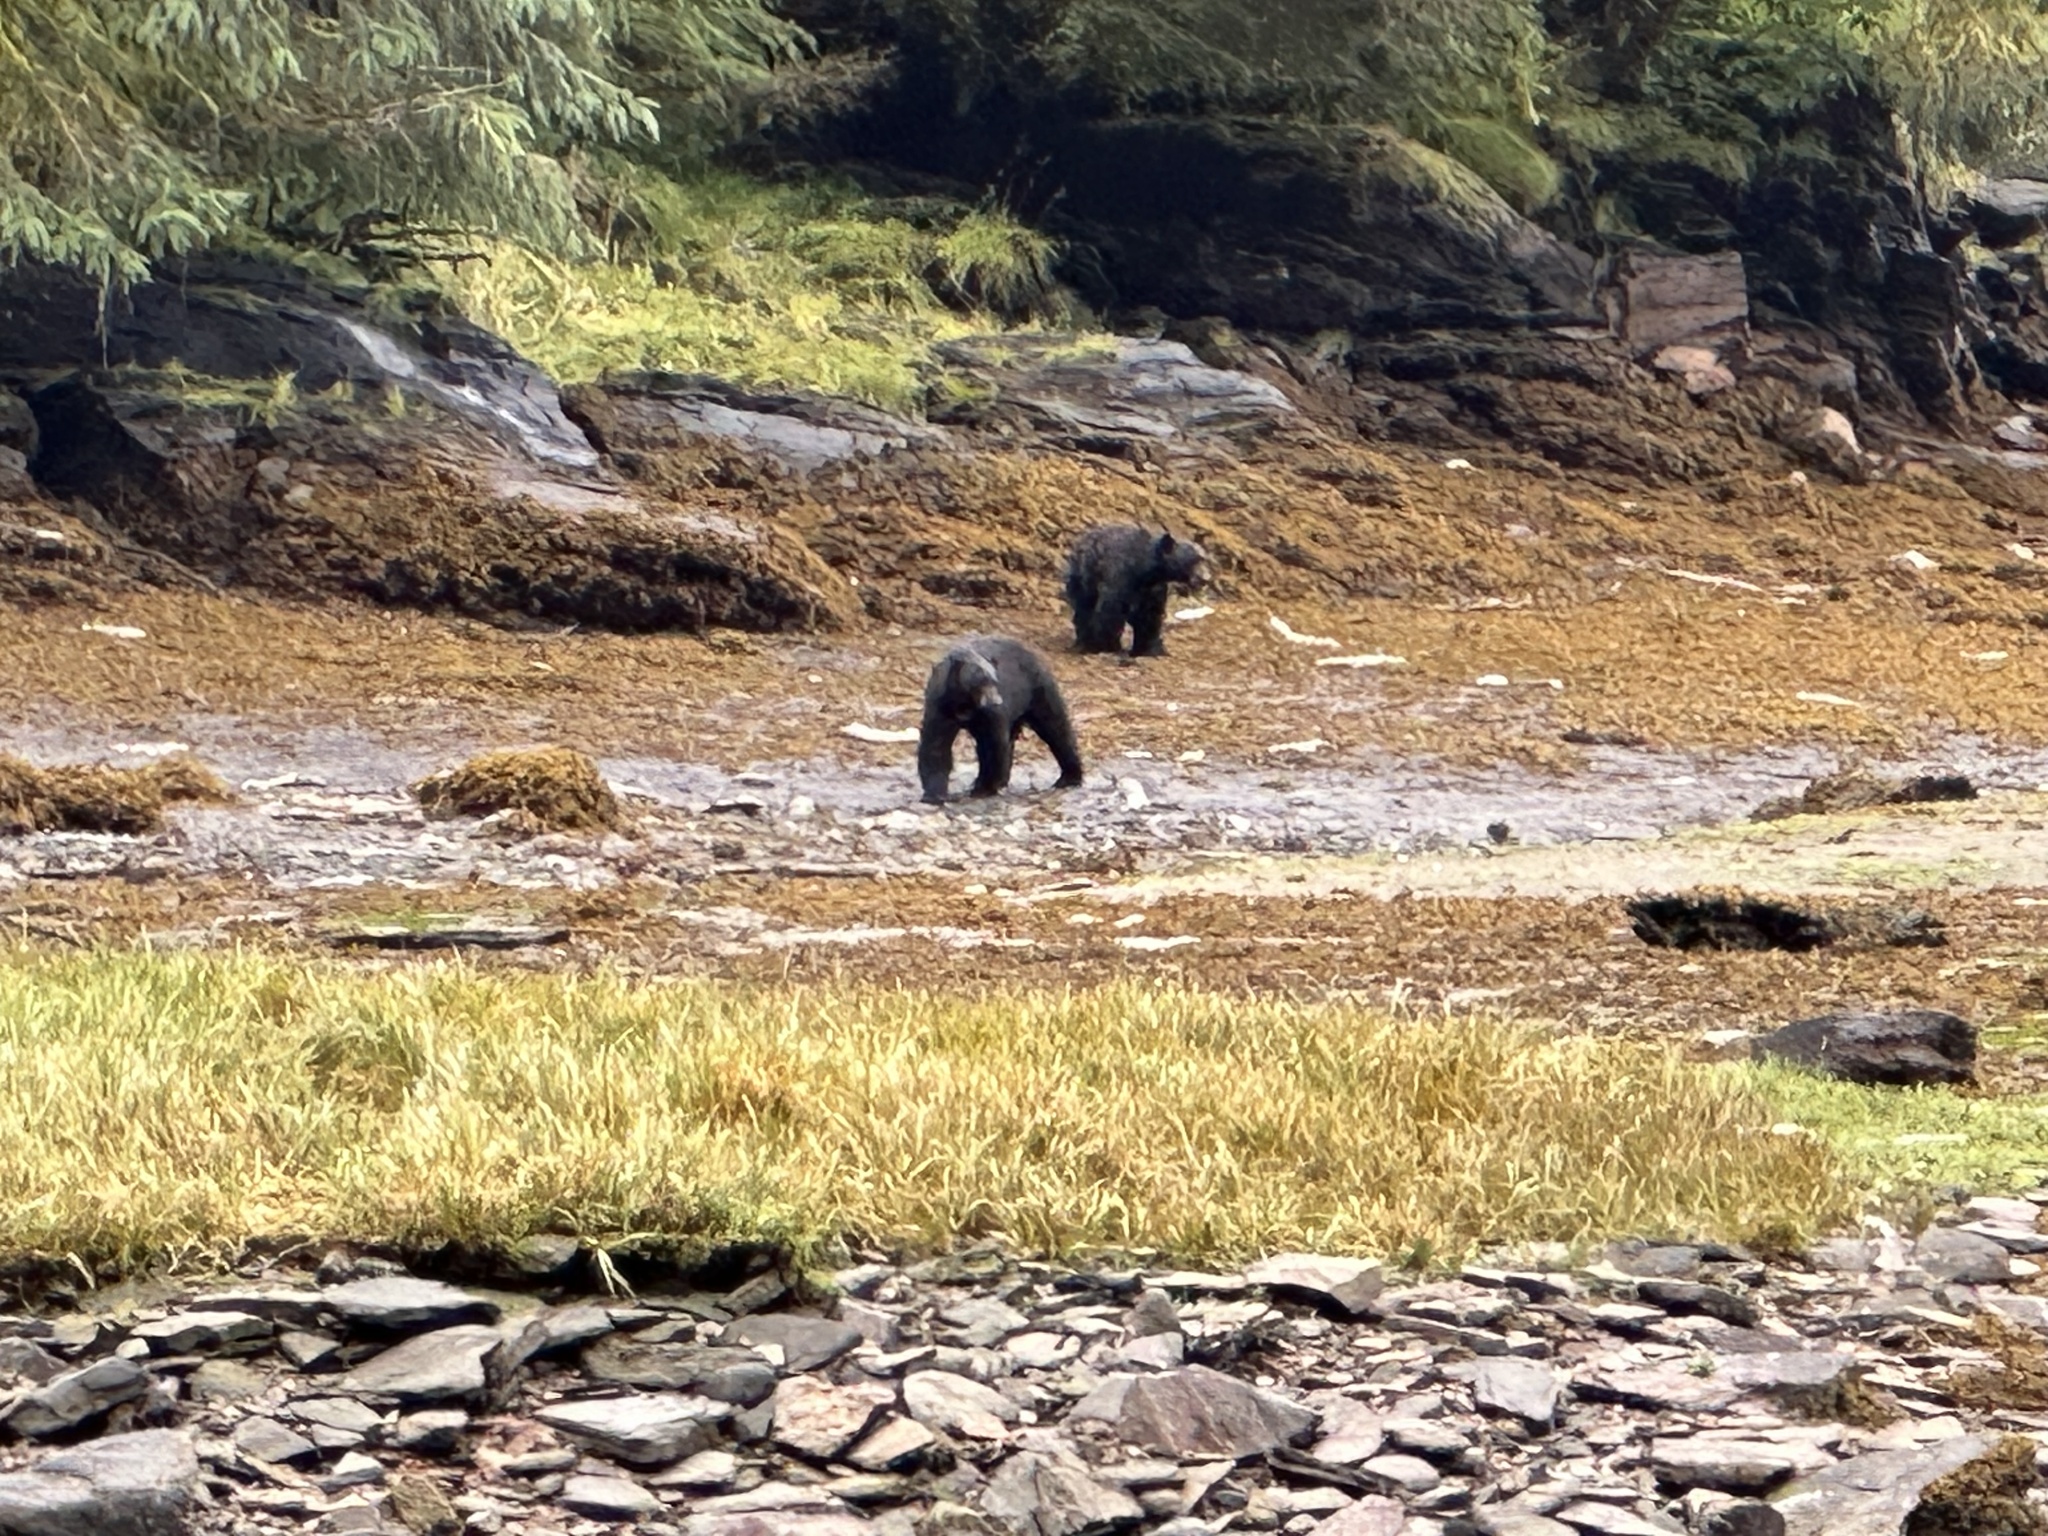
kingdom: Animalia
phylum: Chordata
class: Mammalia
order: Carnivora
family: Ursidae
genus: Ursus
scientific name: Ursus americanus
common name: American black bear
